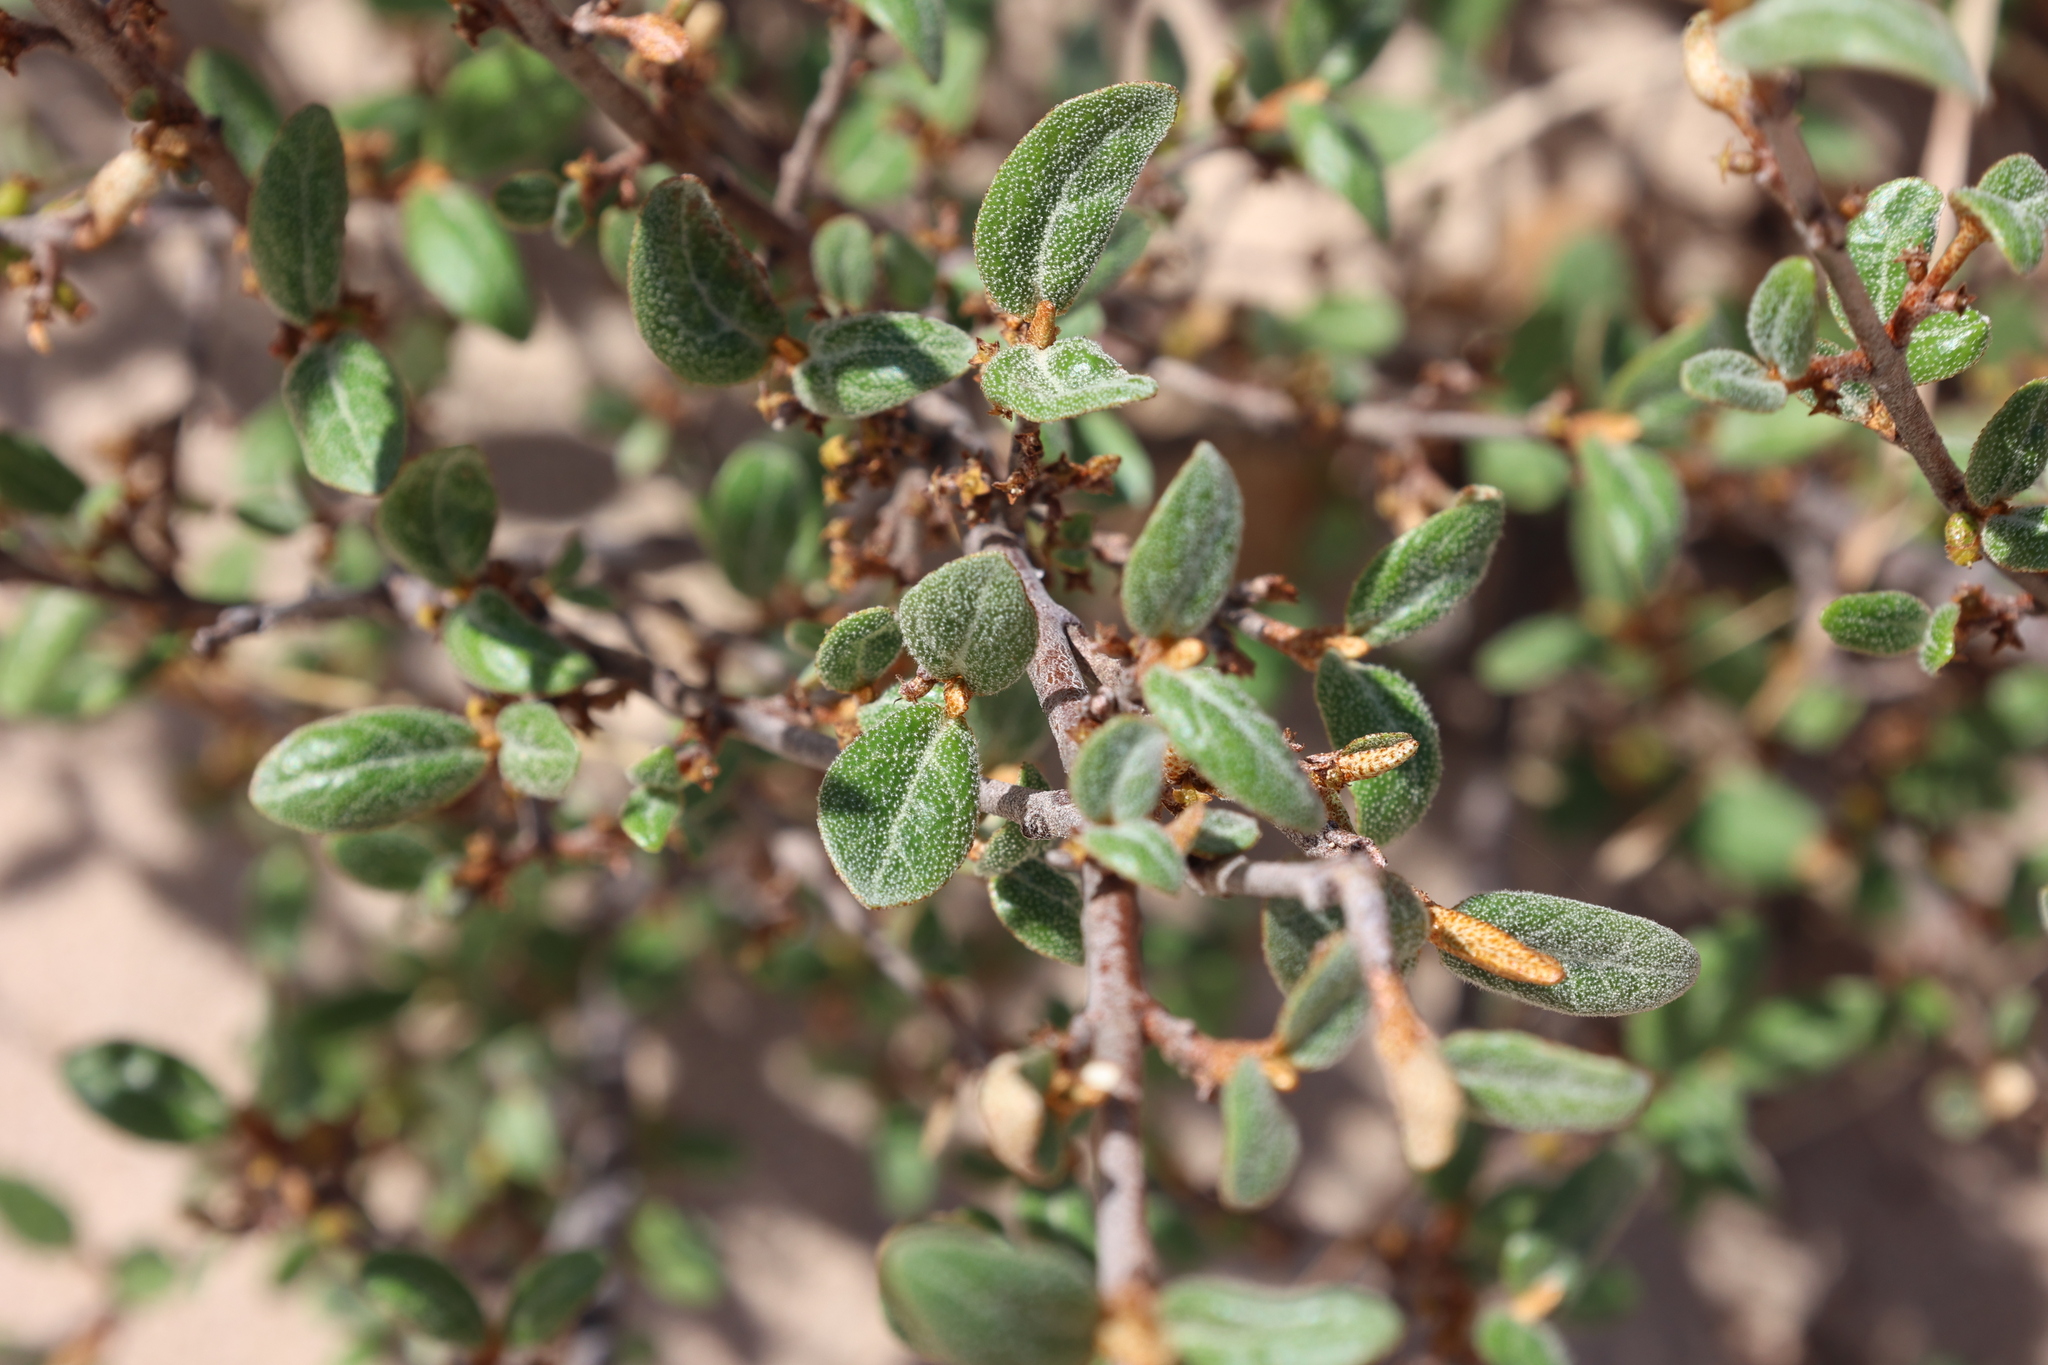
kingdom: Plantae
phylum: Tracheophyta
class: Magnoliopsida
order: Rosales
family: Elaeagnaceae
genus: Shepherdia
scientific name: Shepherdia canadensis
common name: Soapberry
